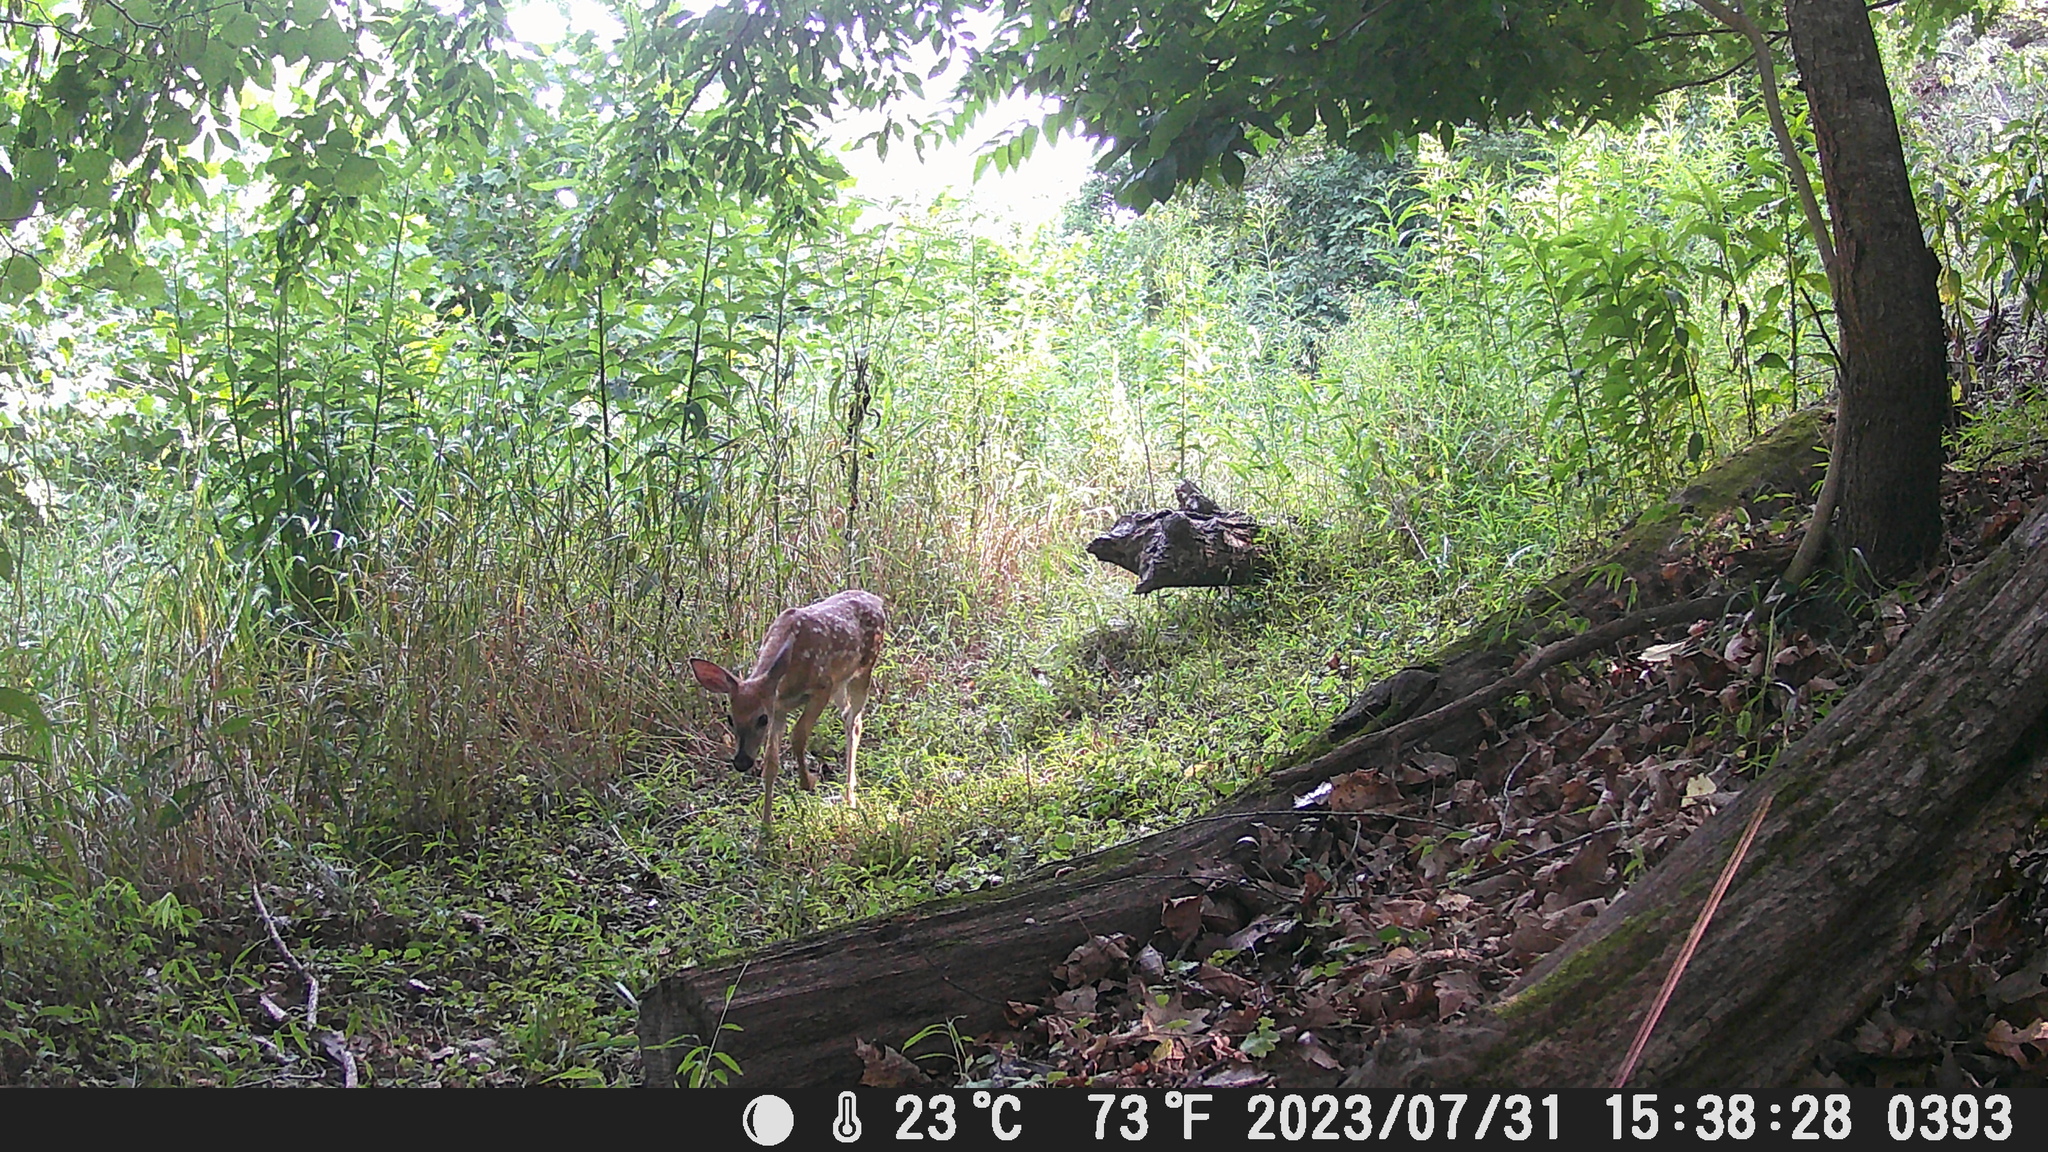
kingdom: Animalia
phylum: Chordata
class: Mammalia
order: Artiodactyla
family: Cervidae
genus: Odocoileus
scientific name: Odocoileus virginianus
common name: White-tailed deer
